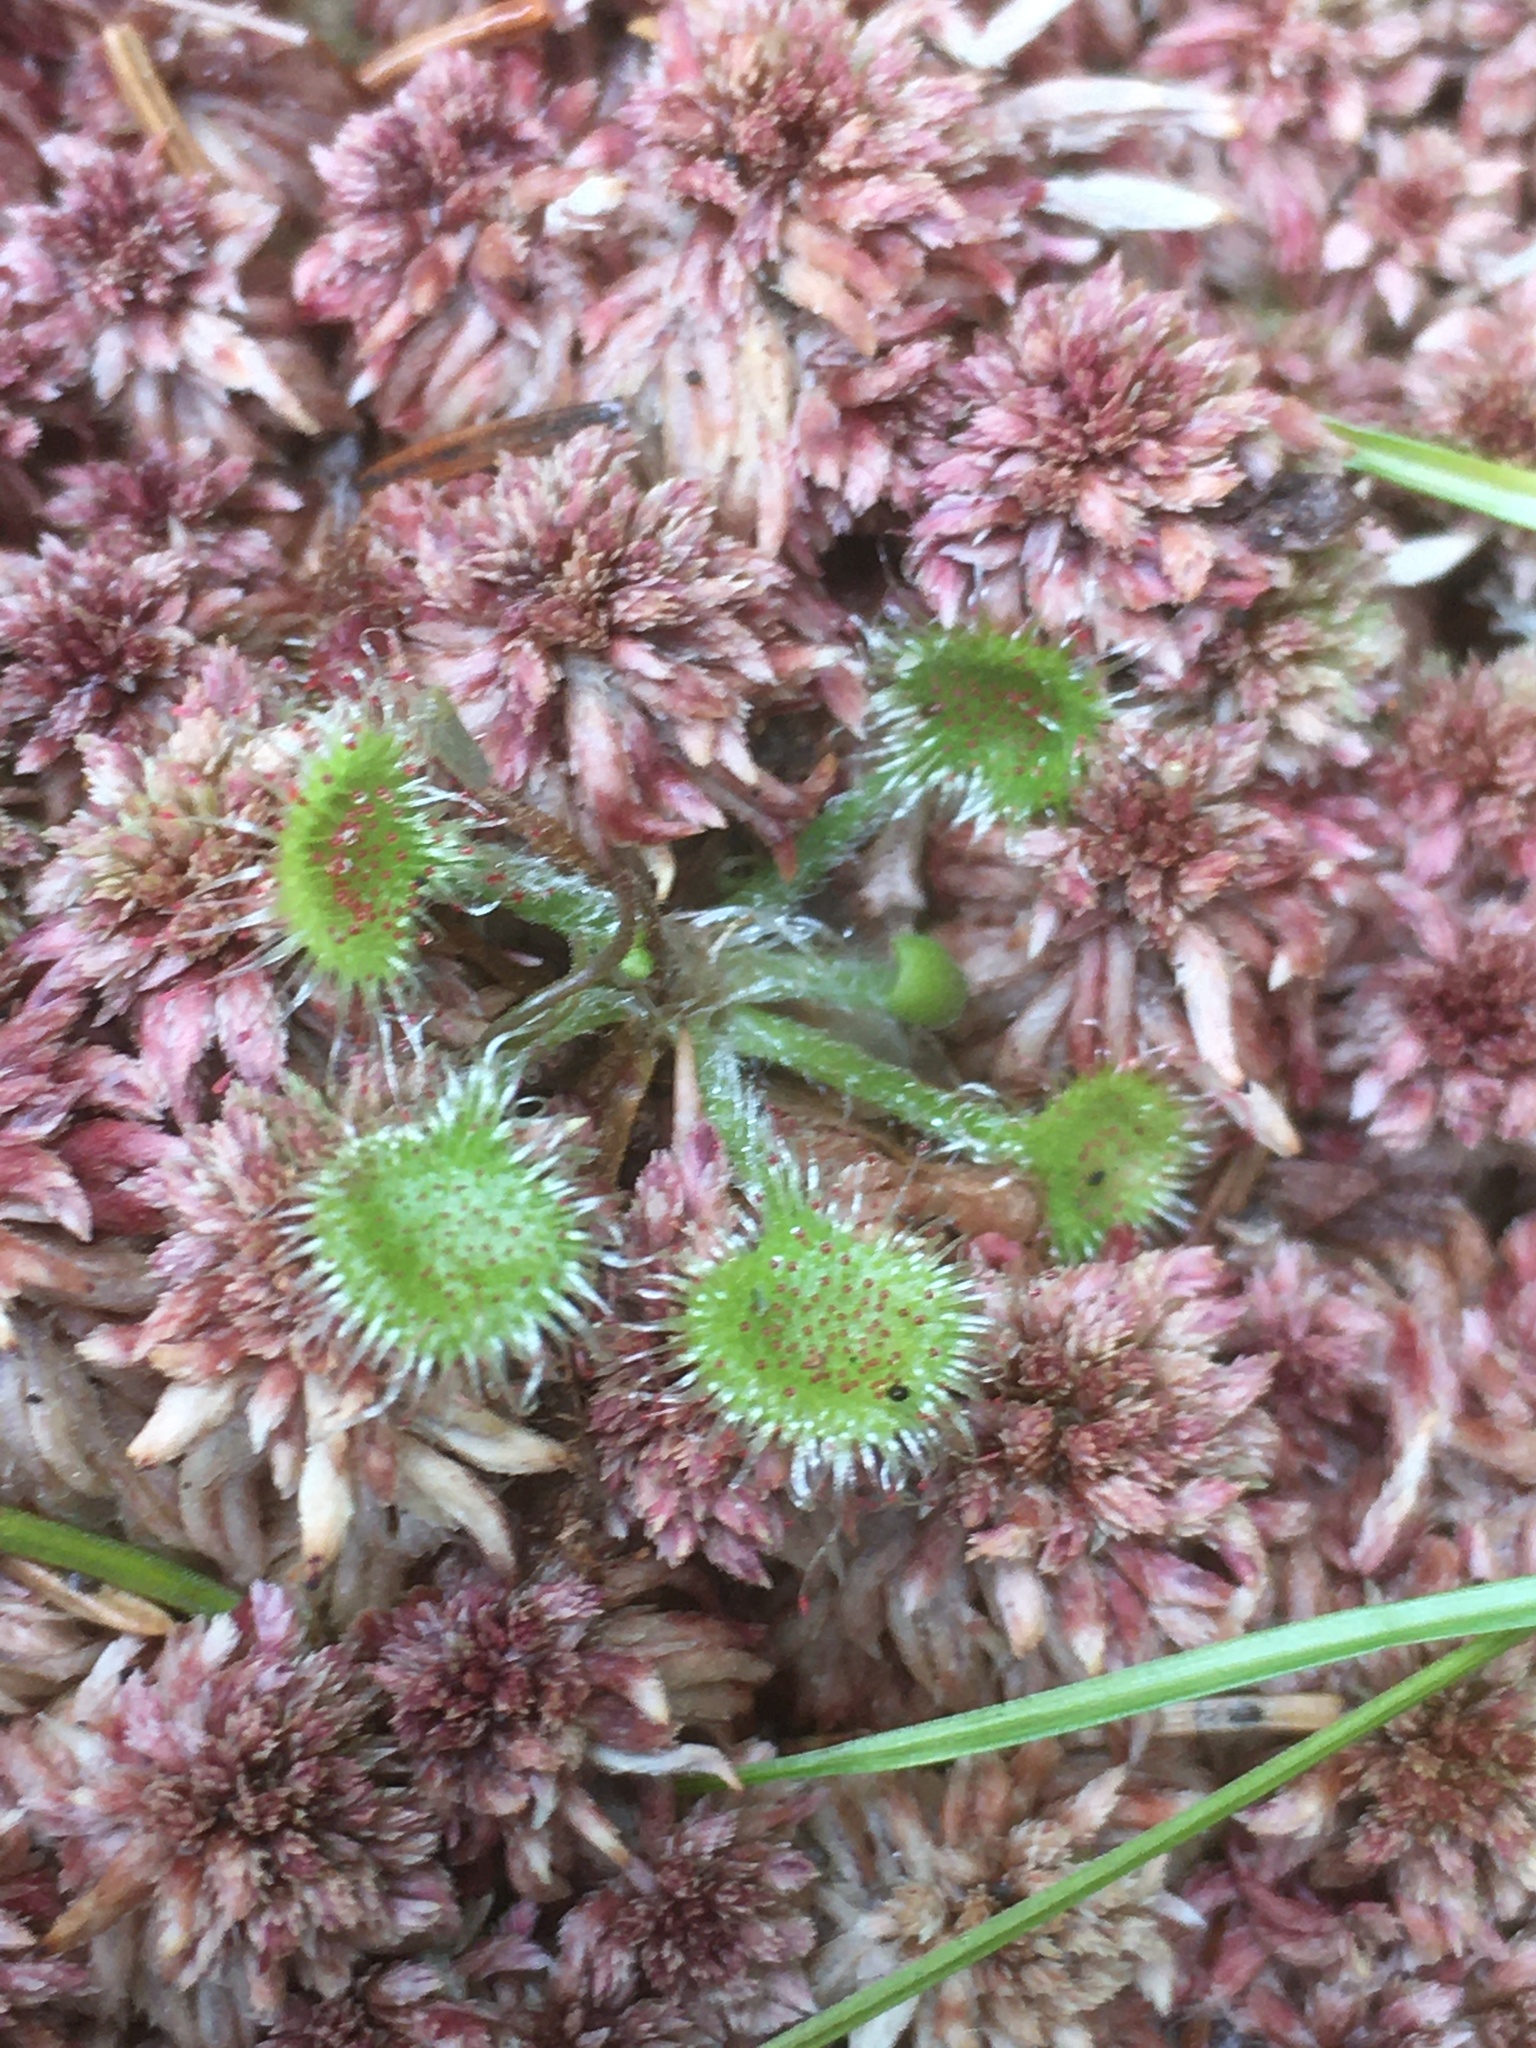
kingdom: Plantae
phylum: Tracheophyta
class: Magnoliopsida
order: Caryophyllales
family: Droseraceae
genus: Drosera
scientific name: Drosera rotundifolia
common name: Round-leaved sundew
